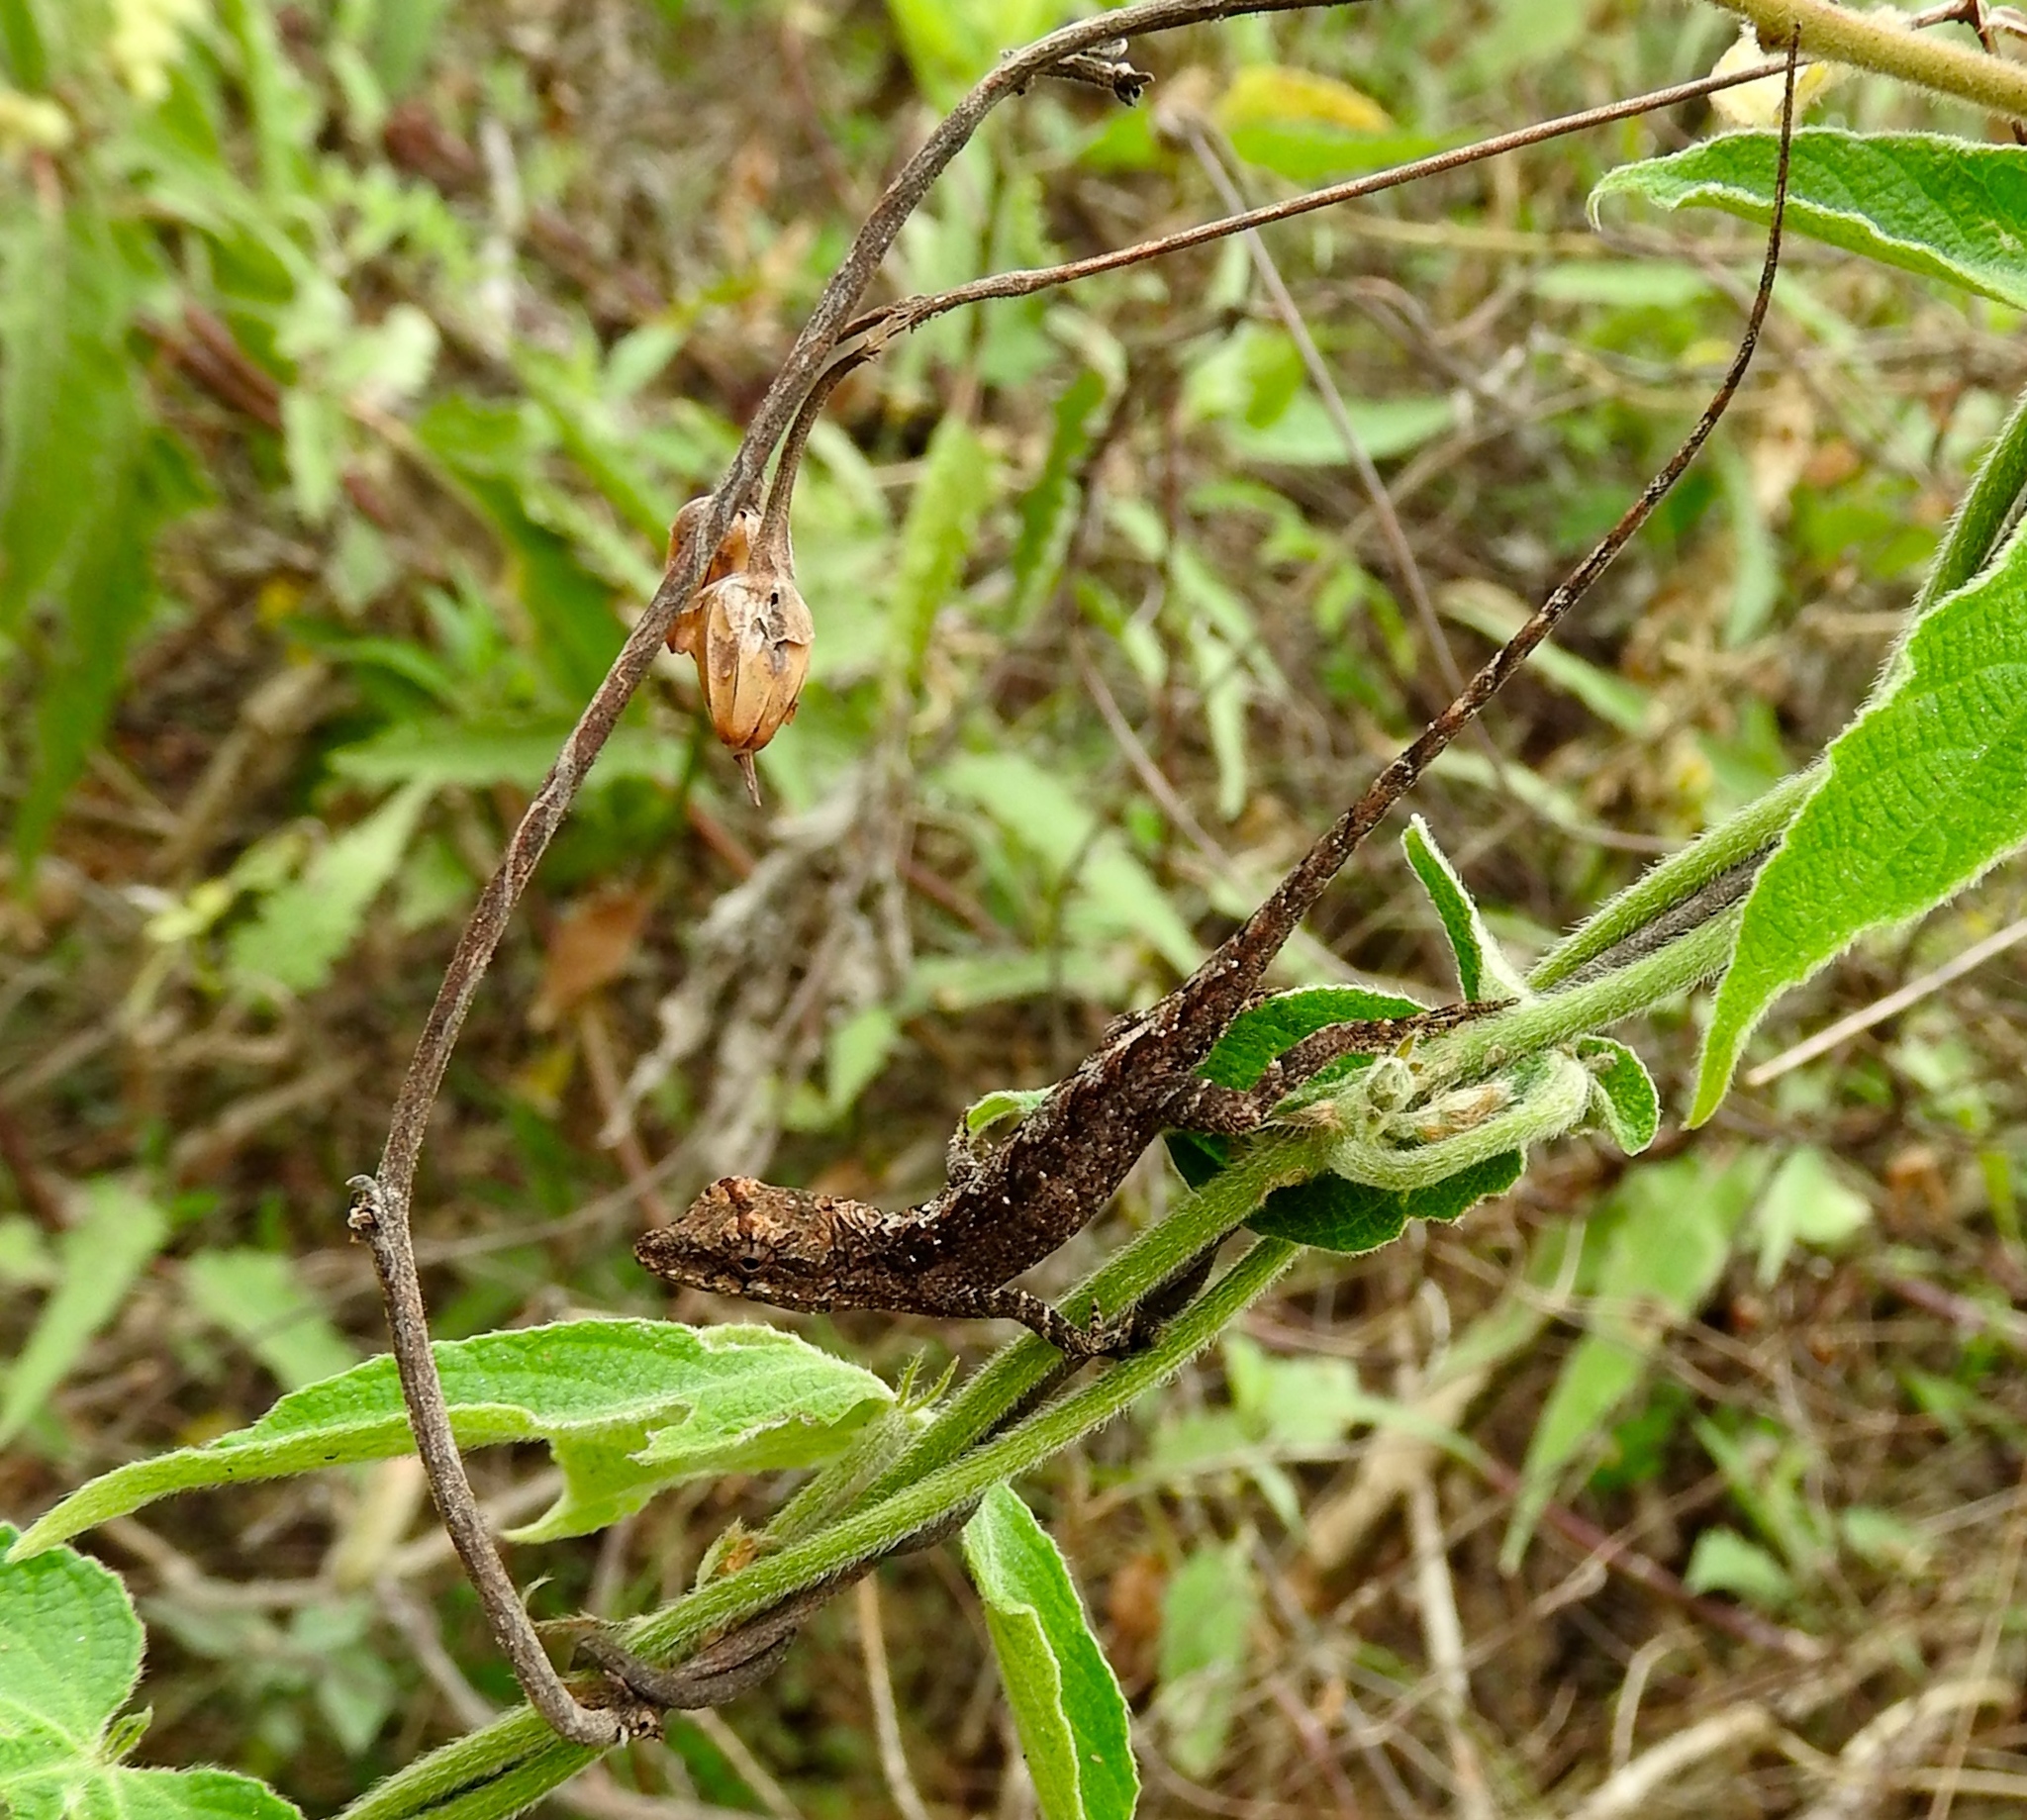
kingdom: Animalia
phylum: Chordata
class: Squamata
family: Dactyloidae
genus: Anolis
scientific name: Anolis nebulosus
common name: Clouded anole
